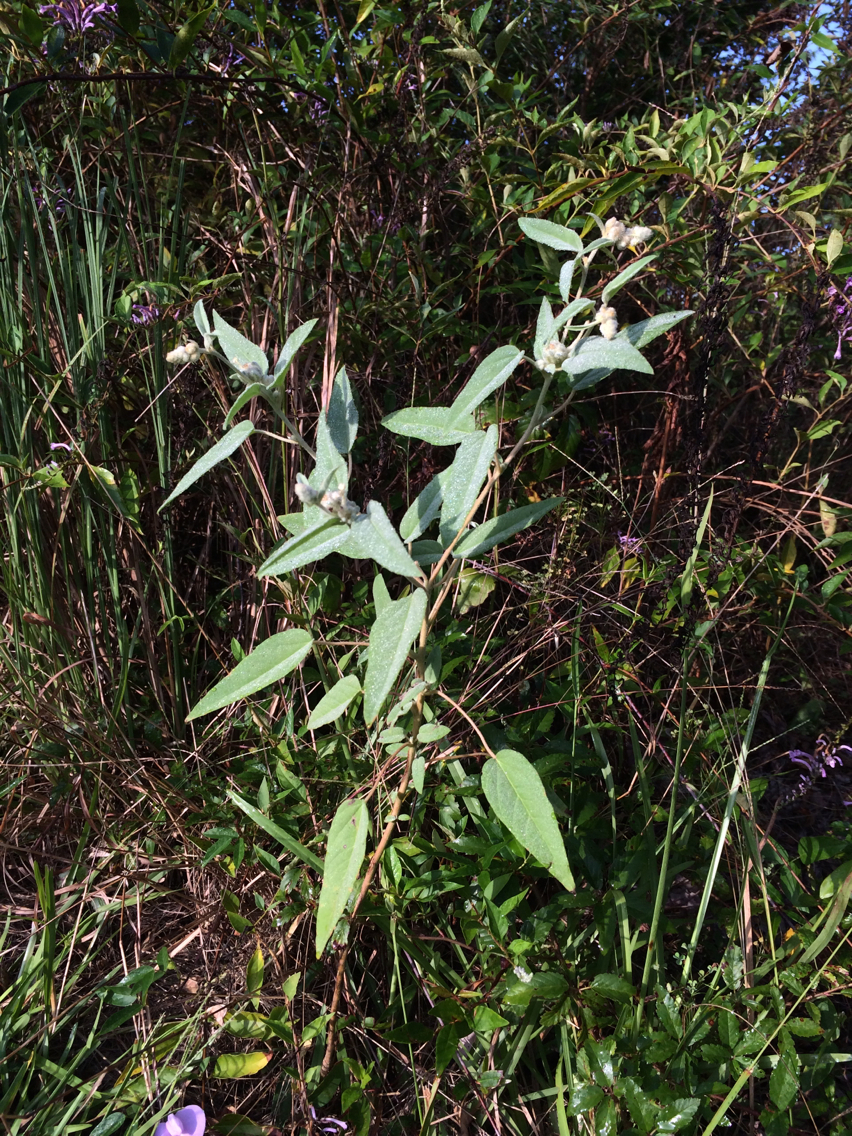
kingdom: Plantae
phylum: Tracheophyta
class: Magnoliopsida
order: Malpighiales
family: Euphorbiaceae
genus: Croton
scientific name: Croton lindheimeri
